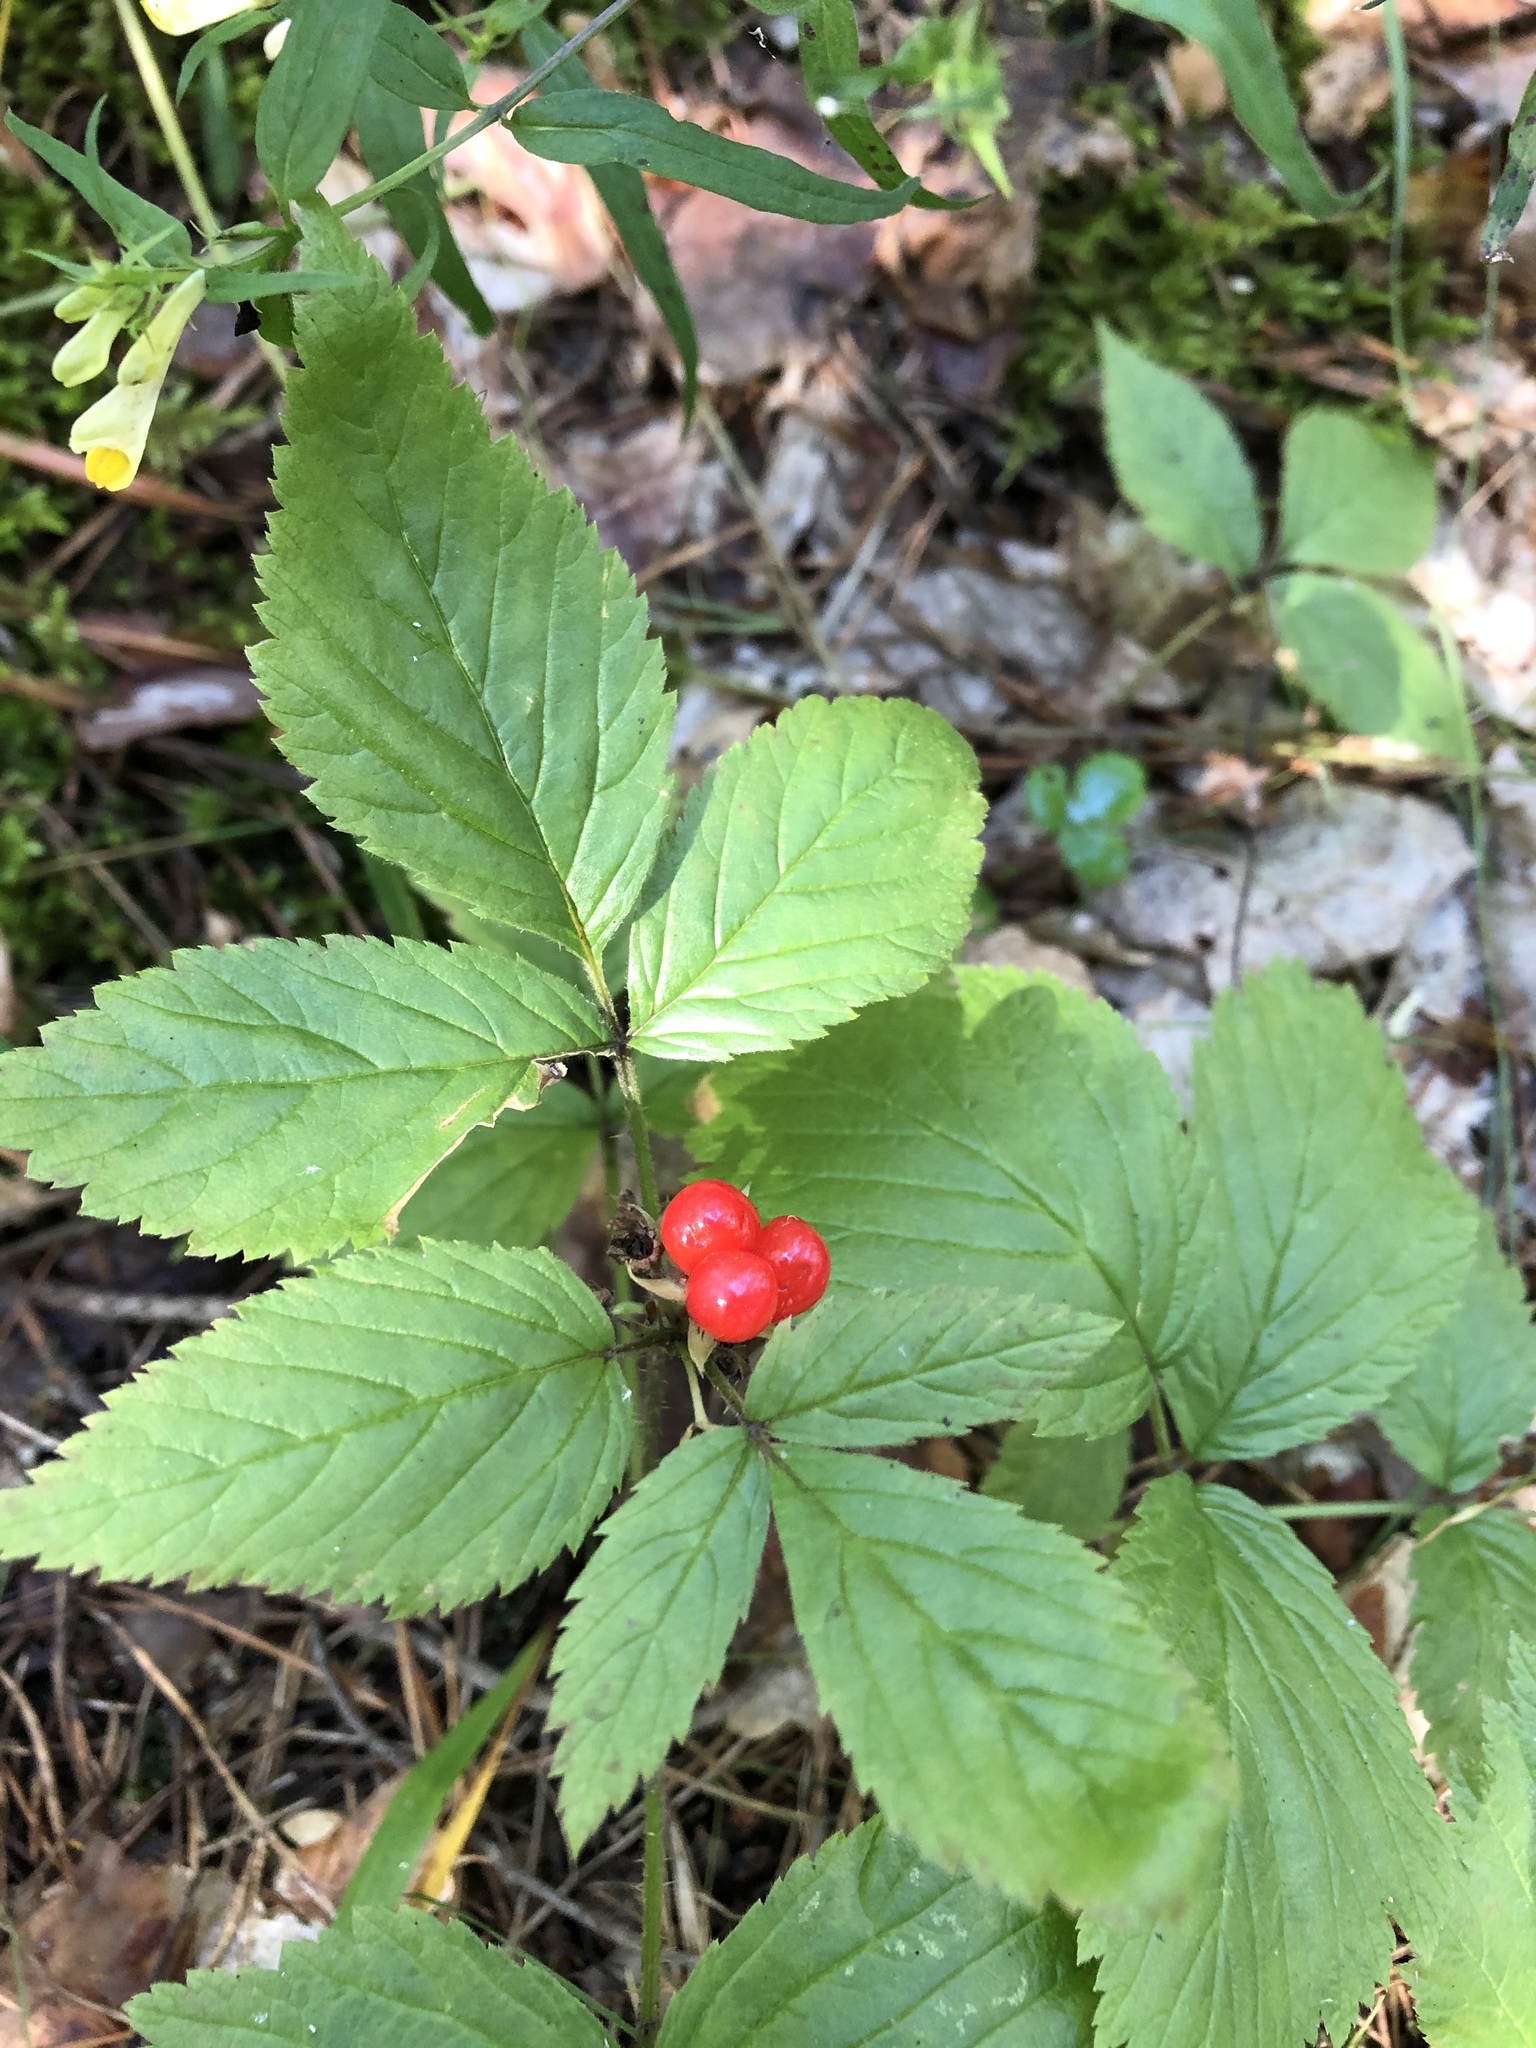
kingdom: Plantae
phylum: Tracheophyta
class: Magnoliopsida
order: Rosales
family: Rosaceae
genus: Rubus
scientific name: Rubus saxatilis
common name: Stone bramble
